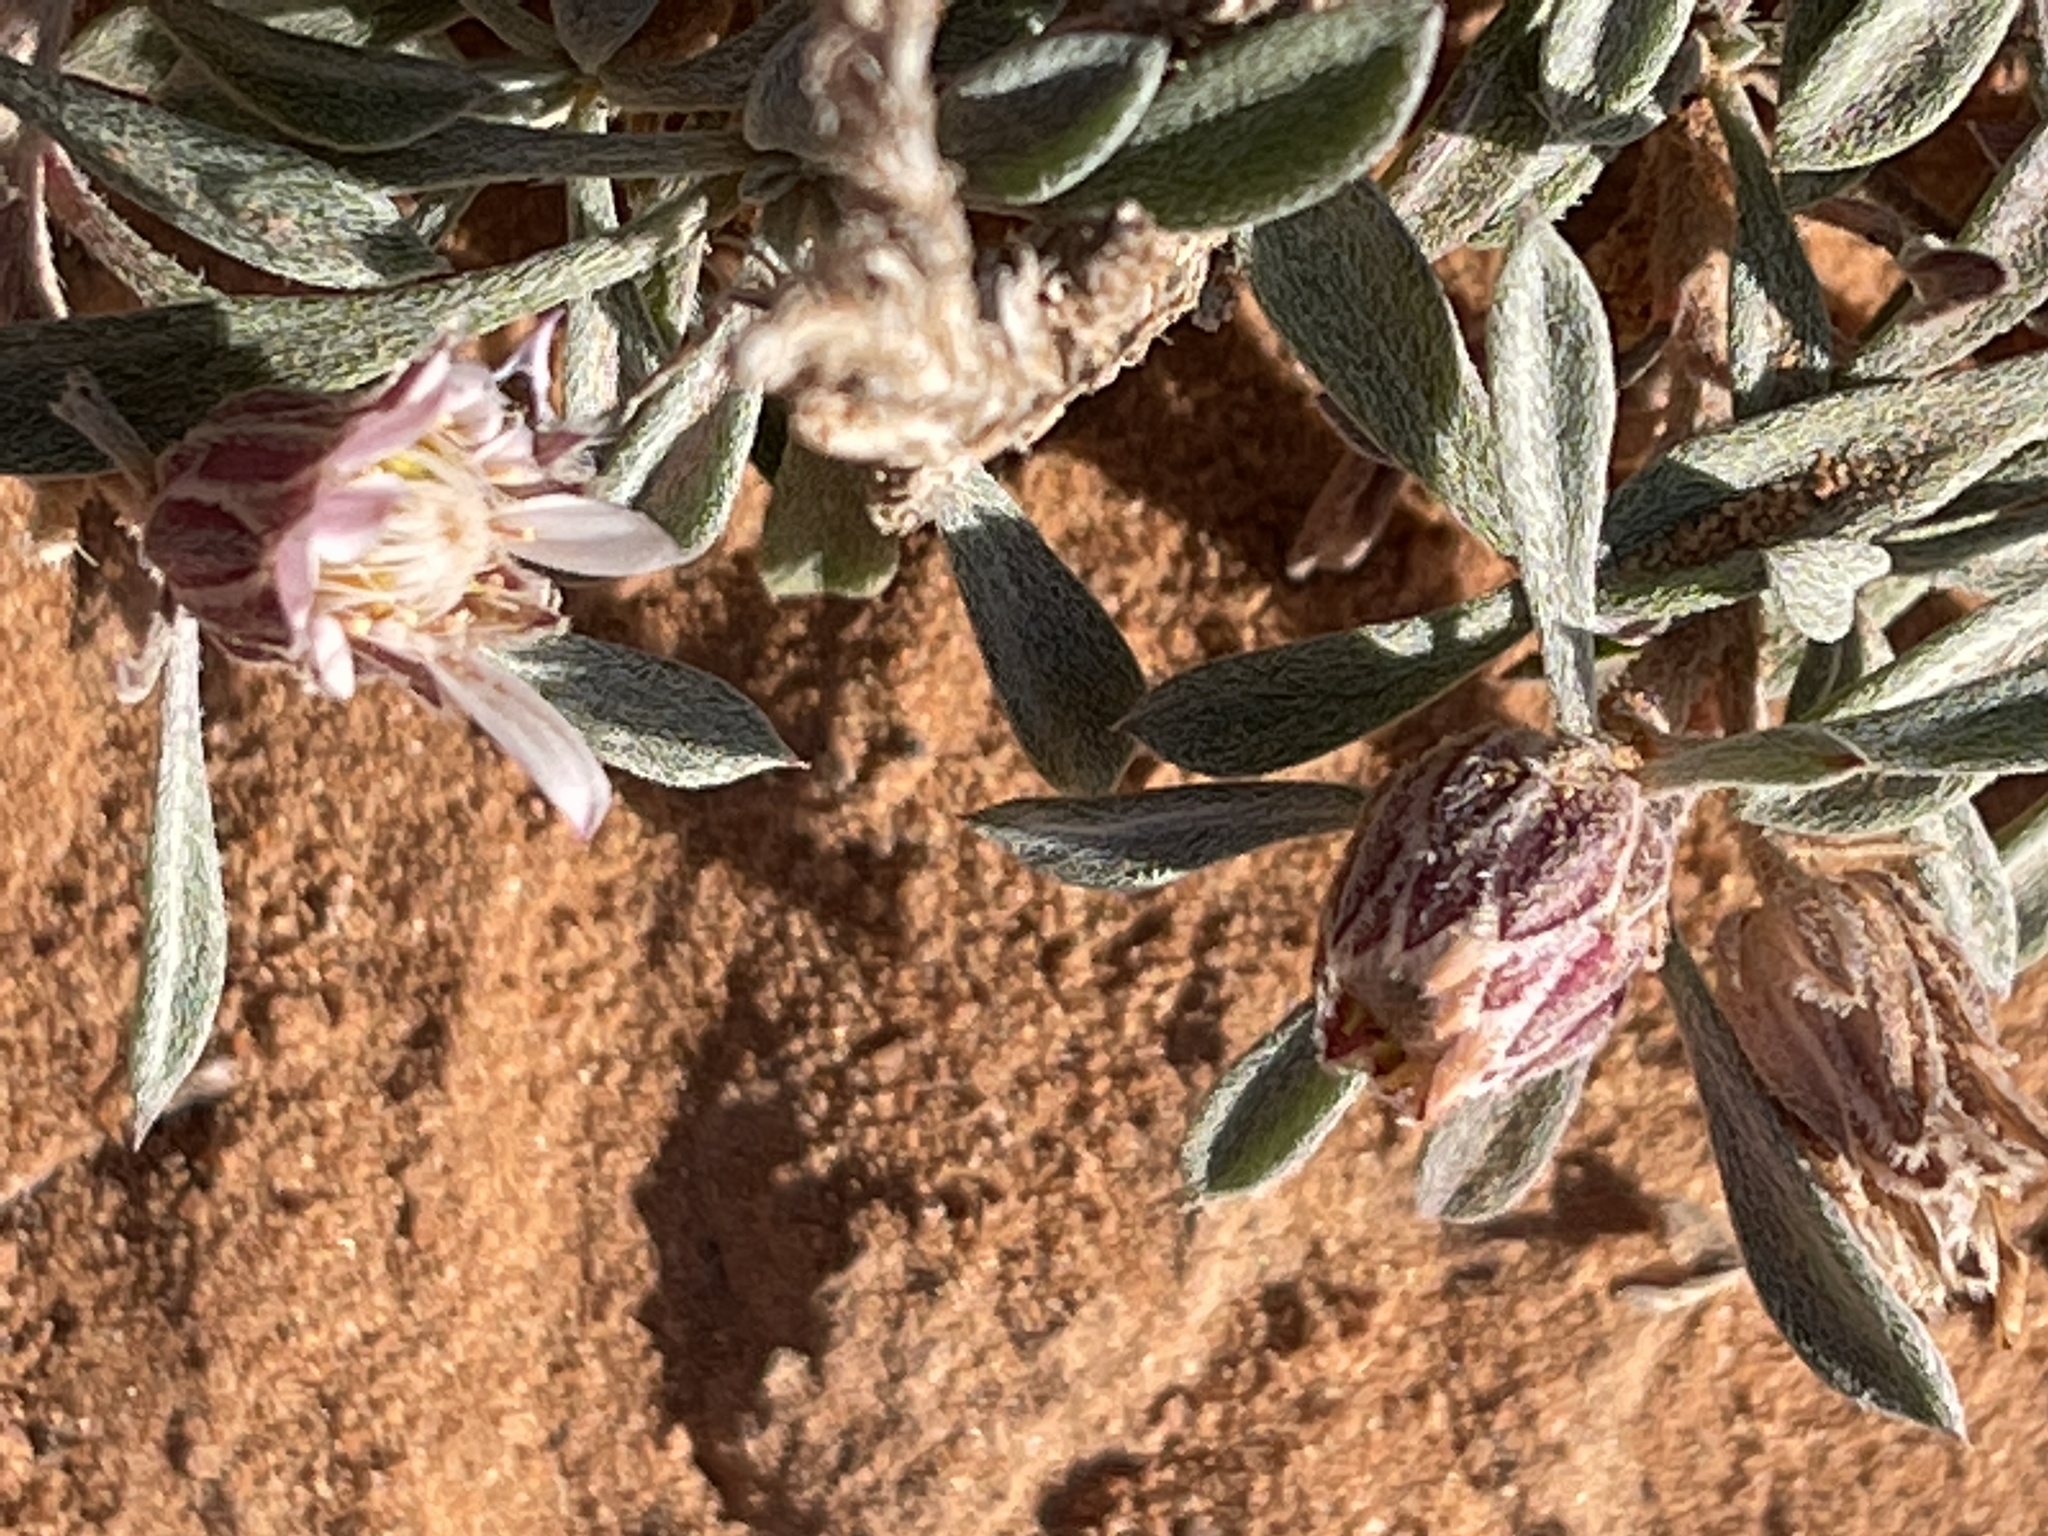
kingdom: Plantae
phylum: Tracheophyta
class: Magnoliopsida
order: Asterales
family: Asteraceae
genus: Townsendia
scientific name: Townsendia incana
